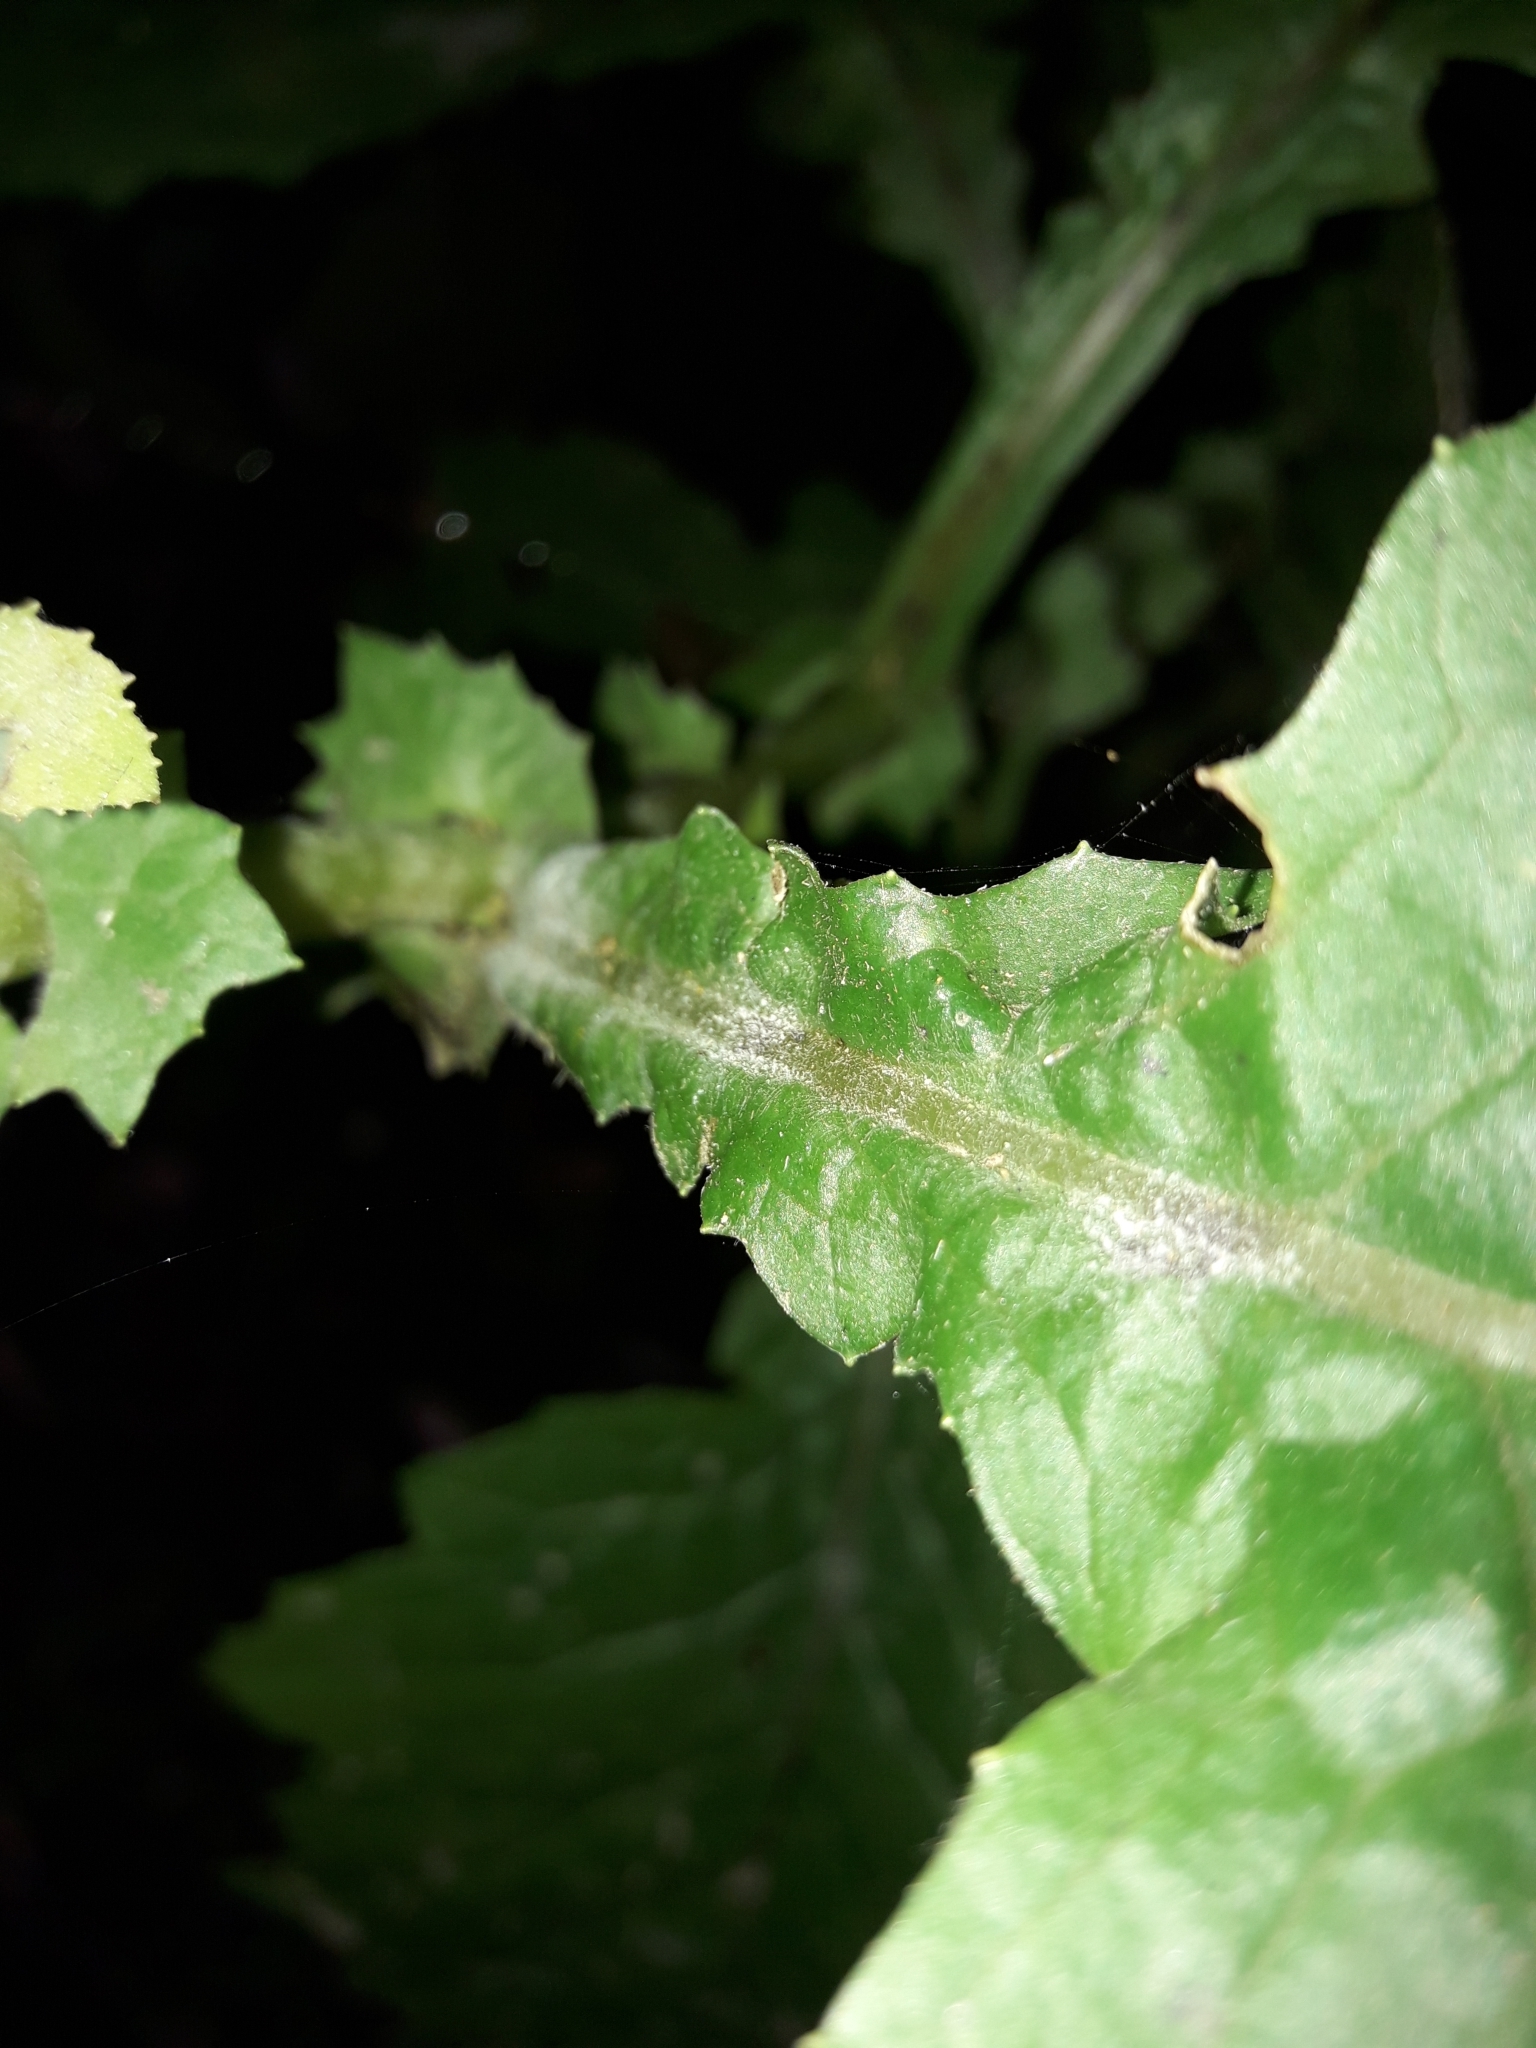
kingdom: Plantae
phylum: Tracheophyta
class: Magnoliopsida
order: Asterales
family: Asteraceae
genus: Senecio
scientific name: Senecio rufiglandulosus
